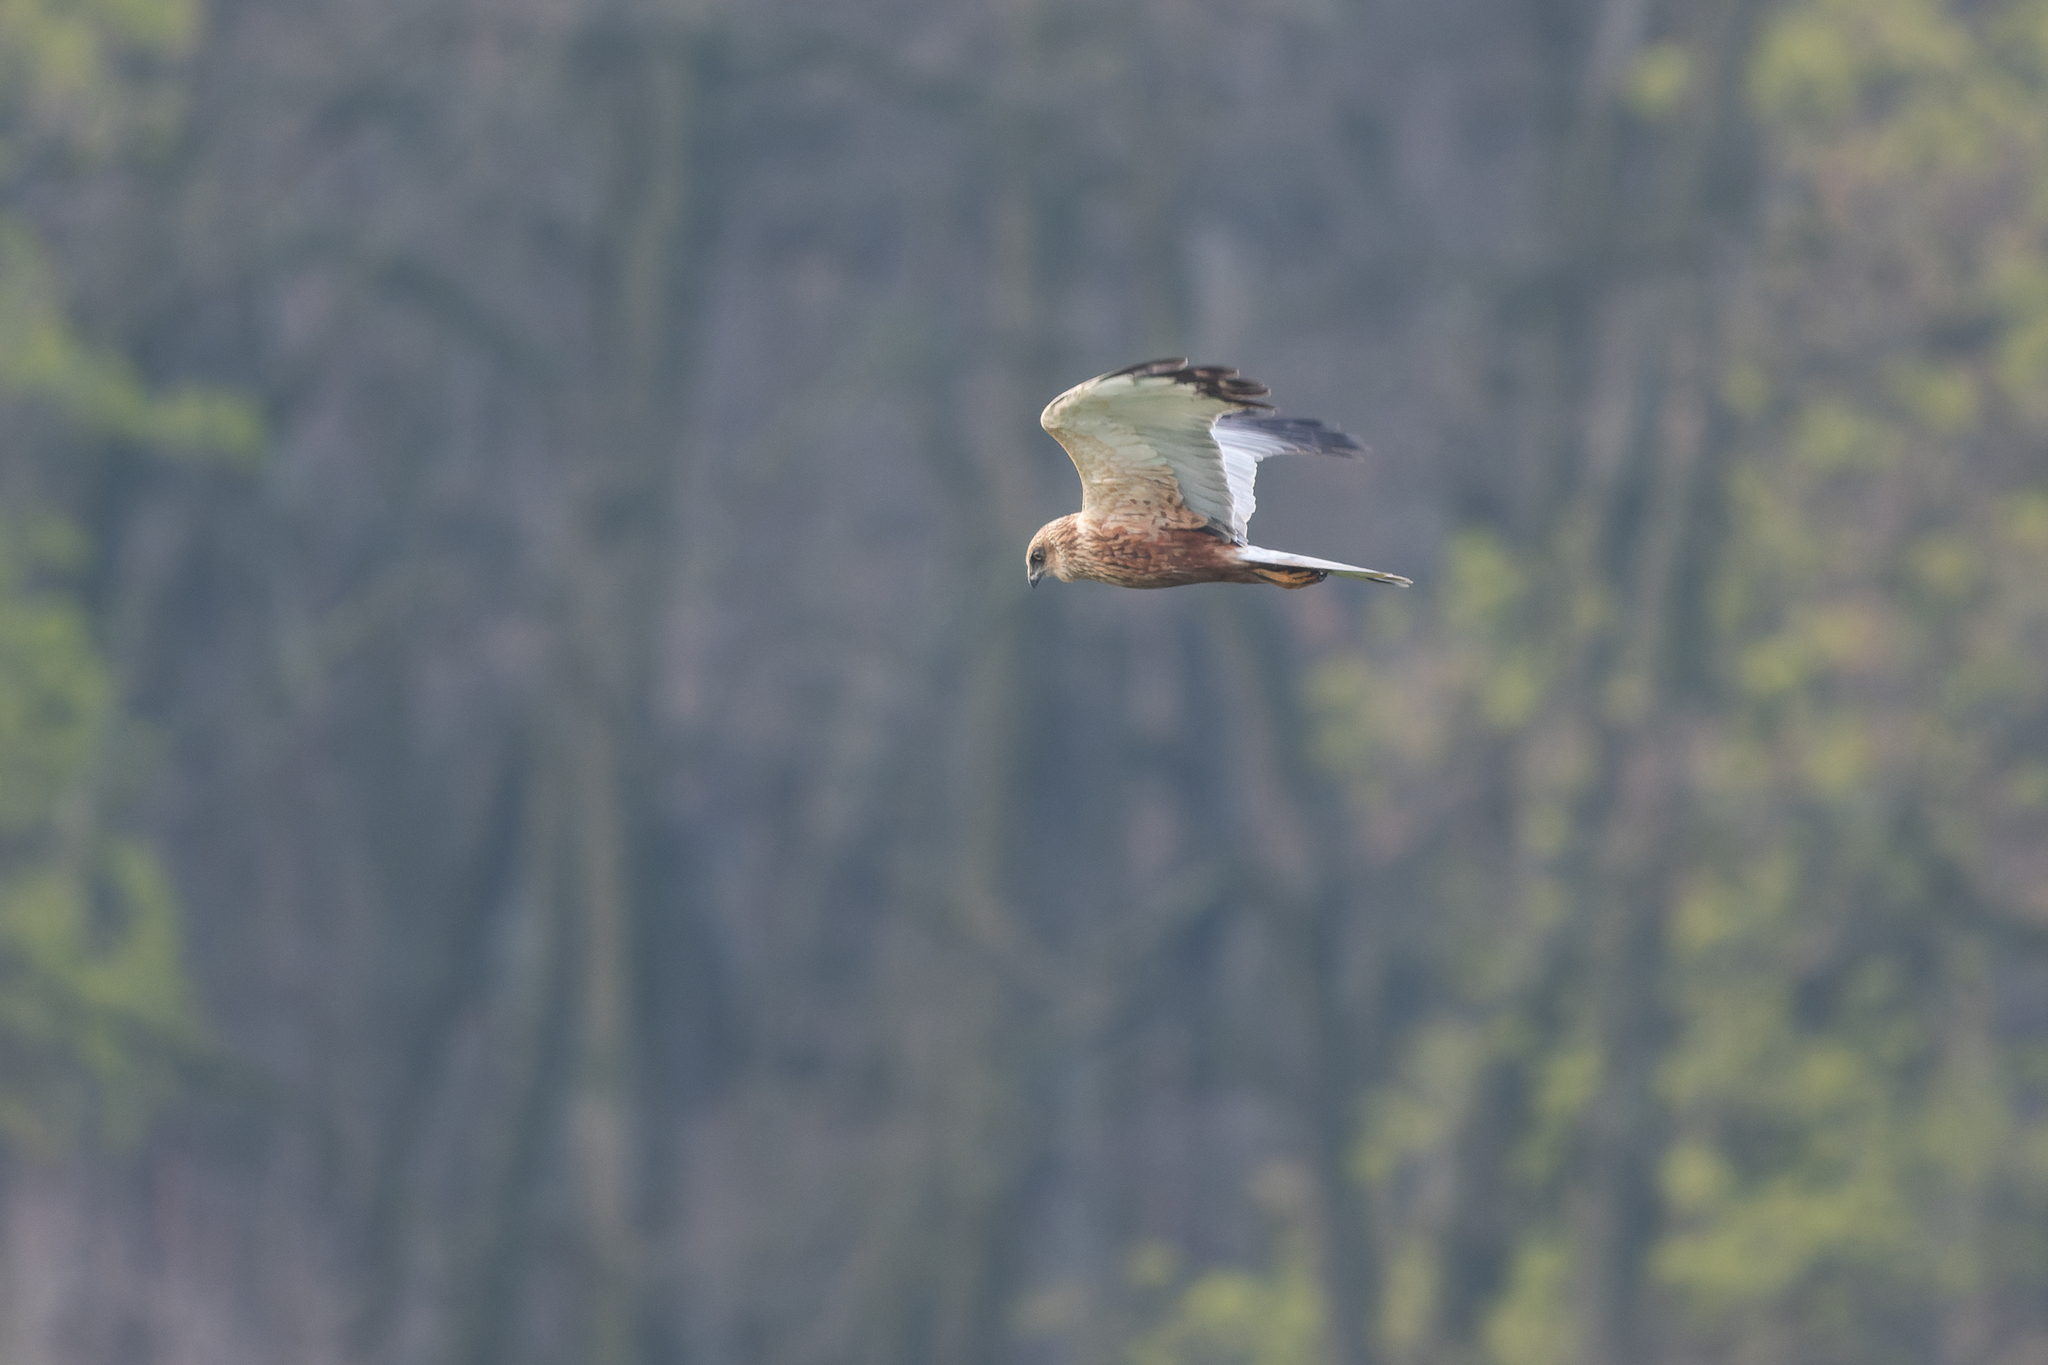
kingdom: Animalia
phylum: Chordata
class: Aves
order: Accipitriformes
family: Accipitridae
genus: Circus
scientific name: Circus aeruginosus
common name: Western marsh harrier
